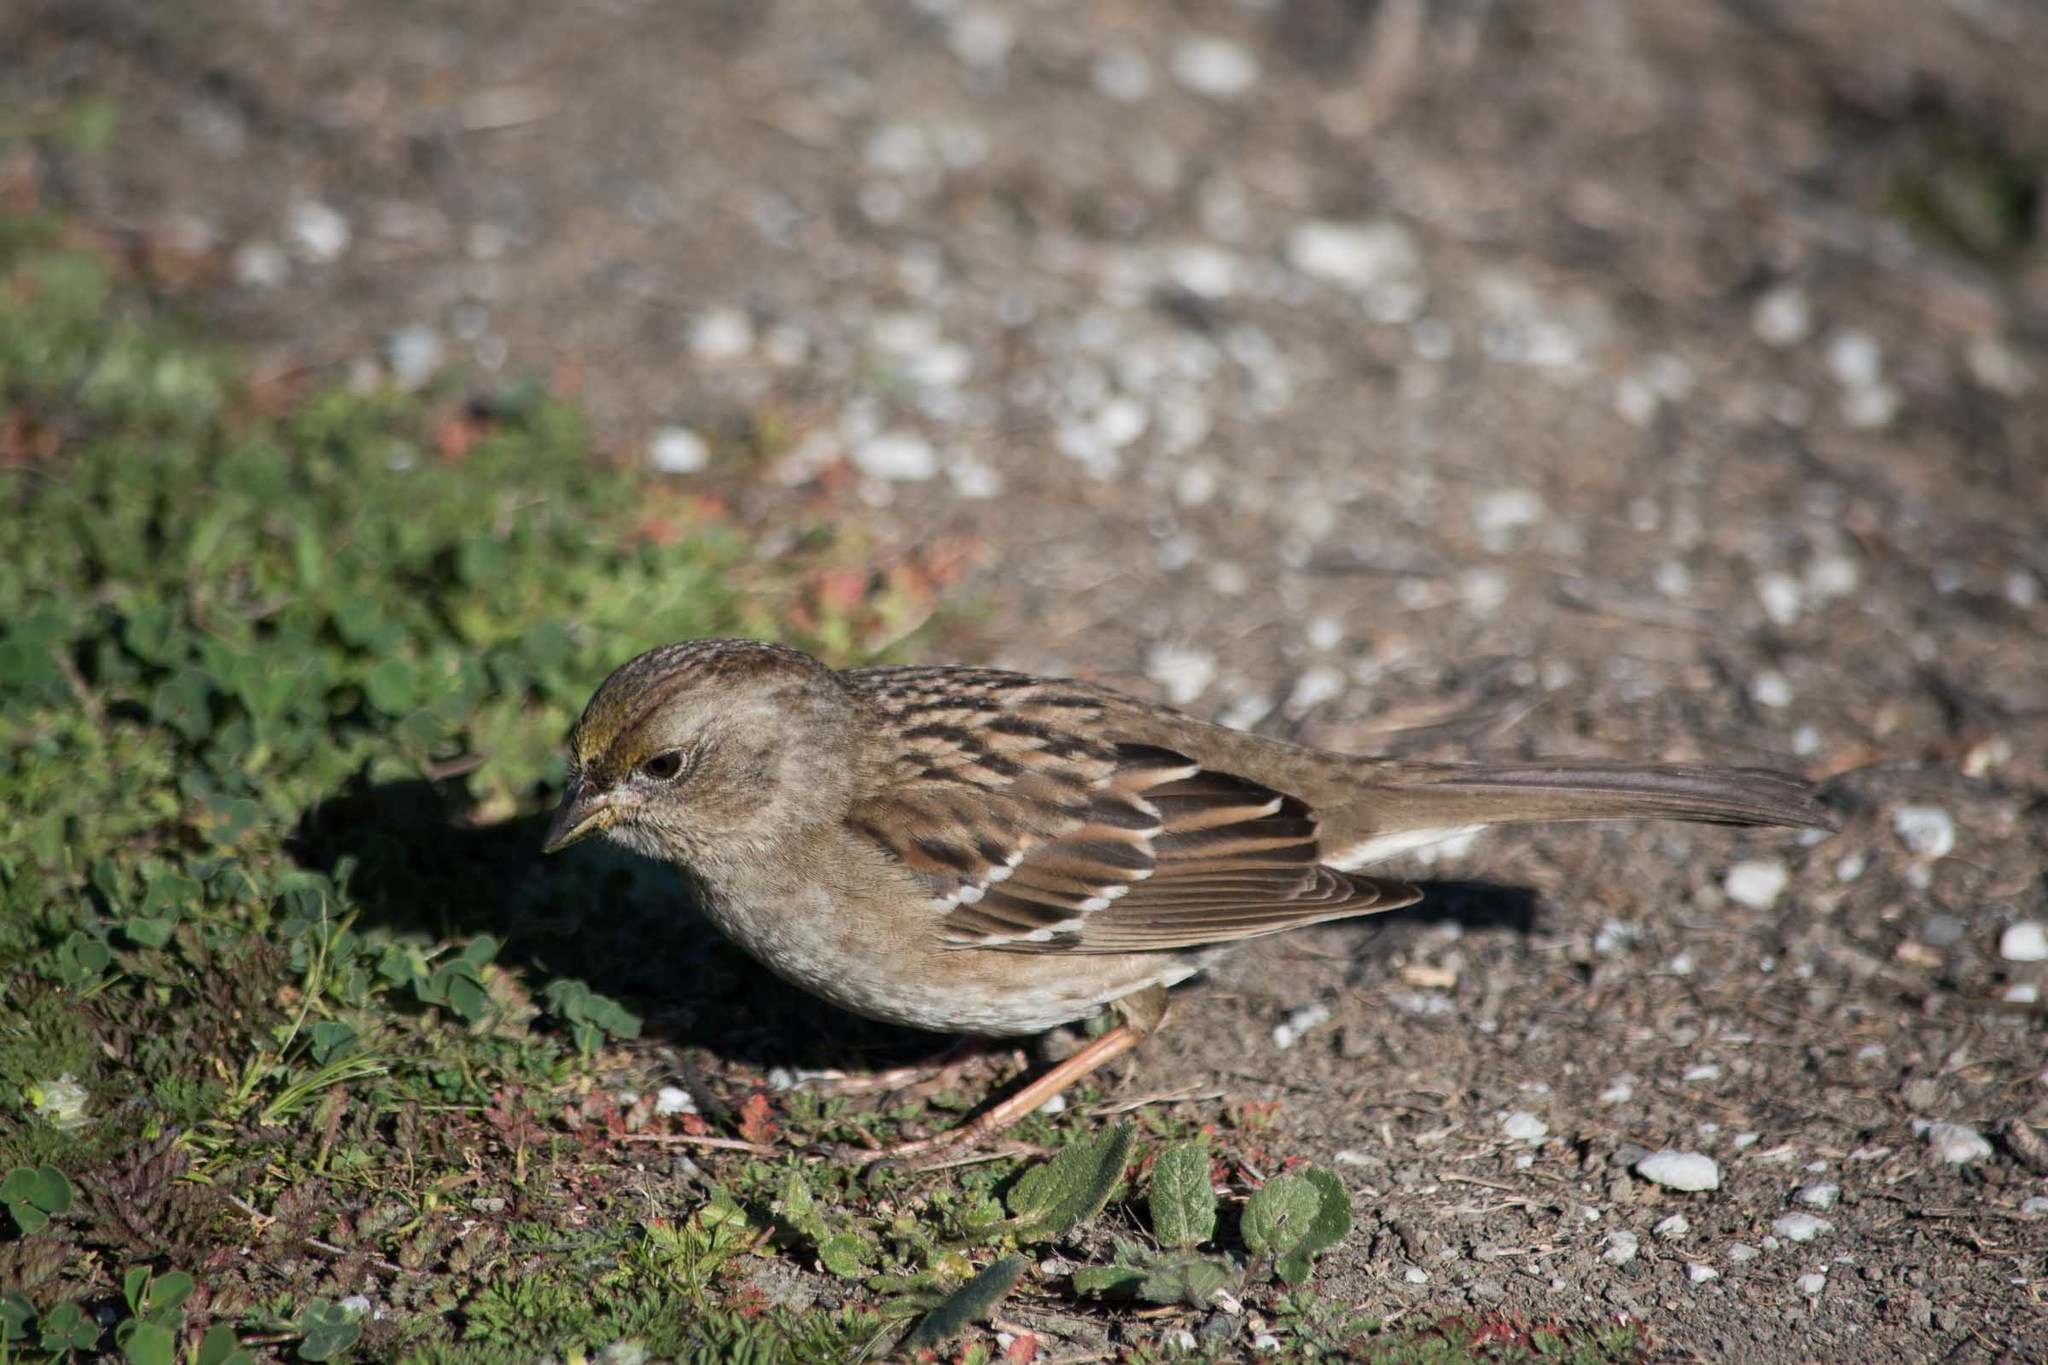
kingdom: Animalia
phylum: Chordata
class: Aves
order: Passeriformes
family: Passerellidae
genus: Zonotrichia
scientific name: Zonotrichia atricapilla
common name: Golden-crowned sparrow
